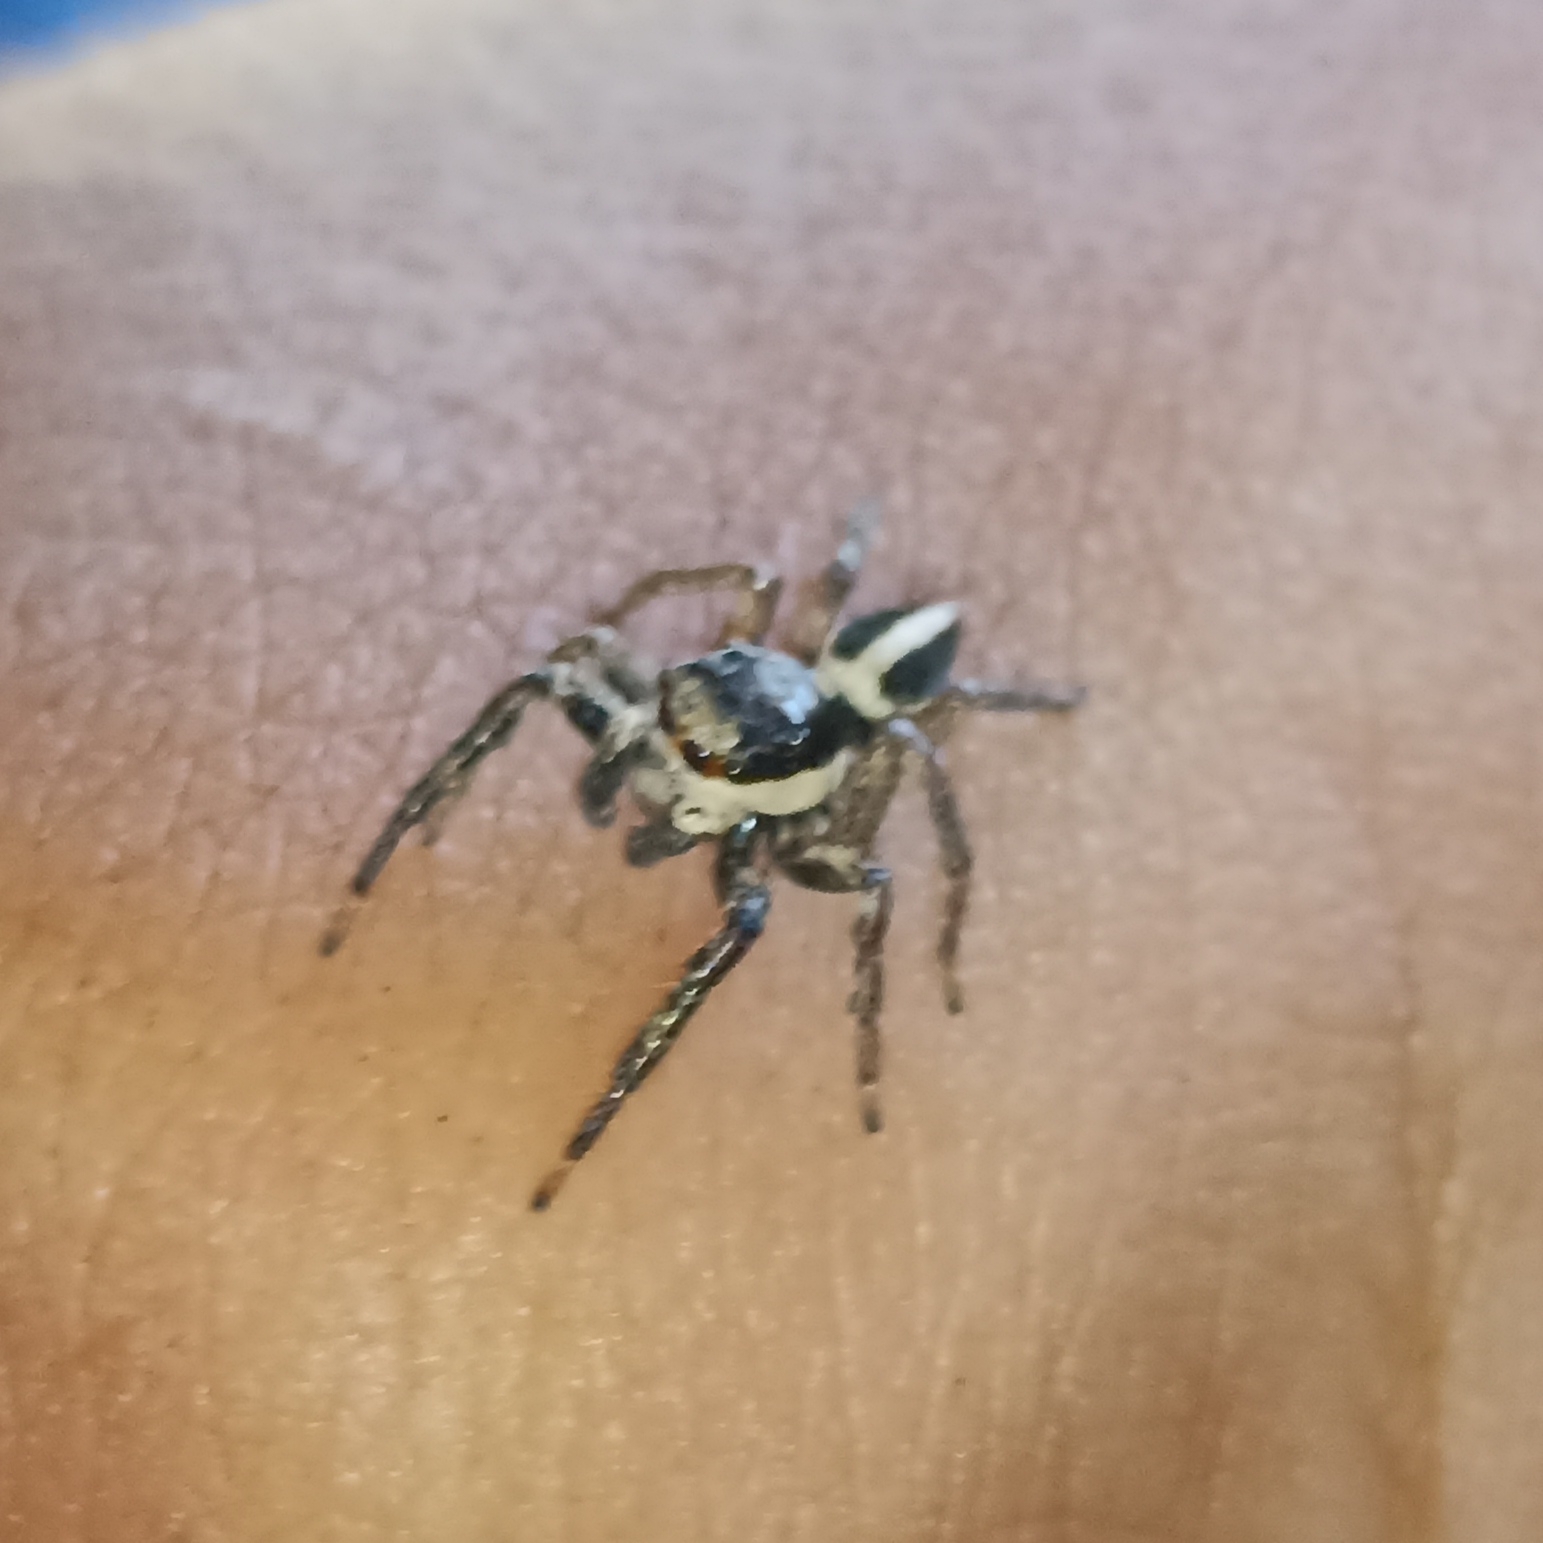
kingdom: Animalia
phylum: Arthropoda
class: Arachnida
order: Araneae
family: Salticidae
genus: Leptofreya
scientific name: Leptofreya ambigua
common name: Jumping spider
